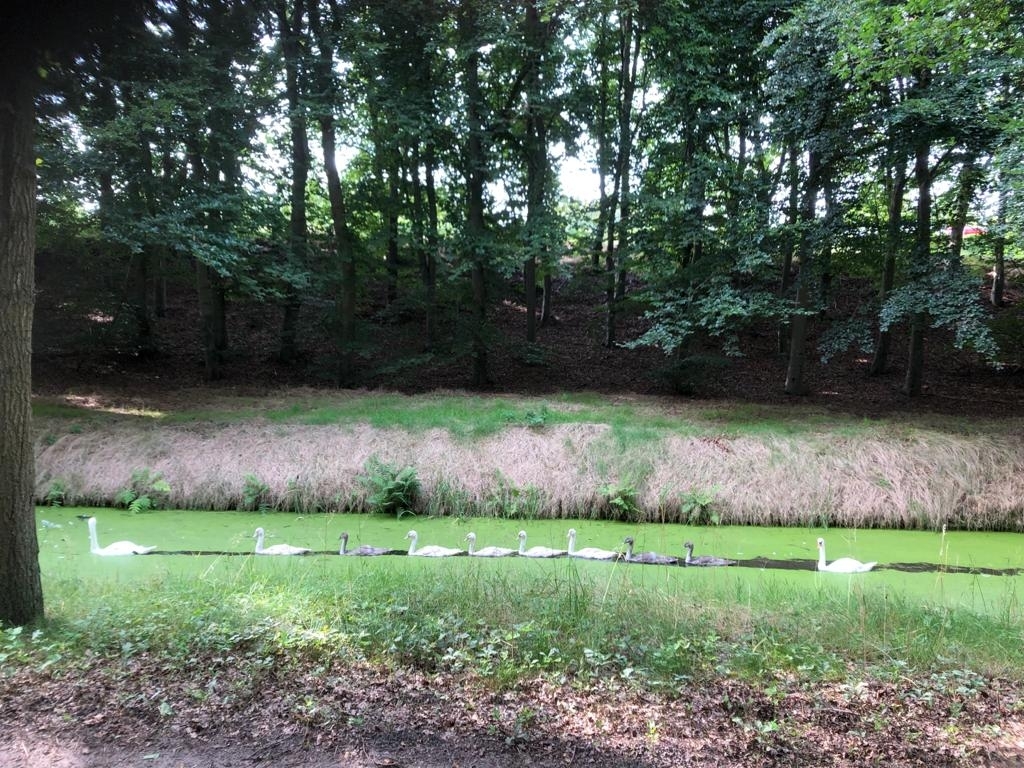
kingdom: Animalia
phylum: Chordata
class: Aves
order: Anseriformes
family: Anatidae
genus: Cygnus
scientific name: Cygnus olor
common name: Mute swan
